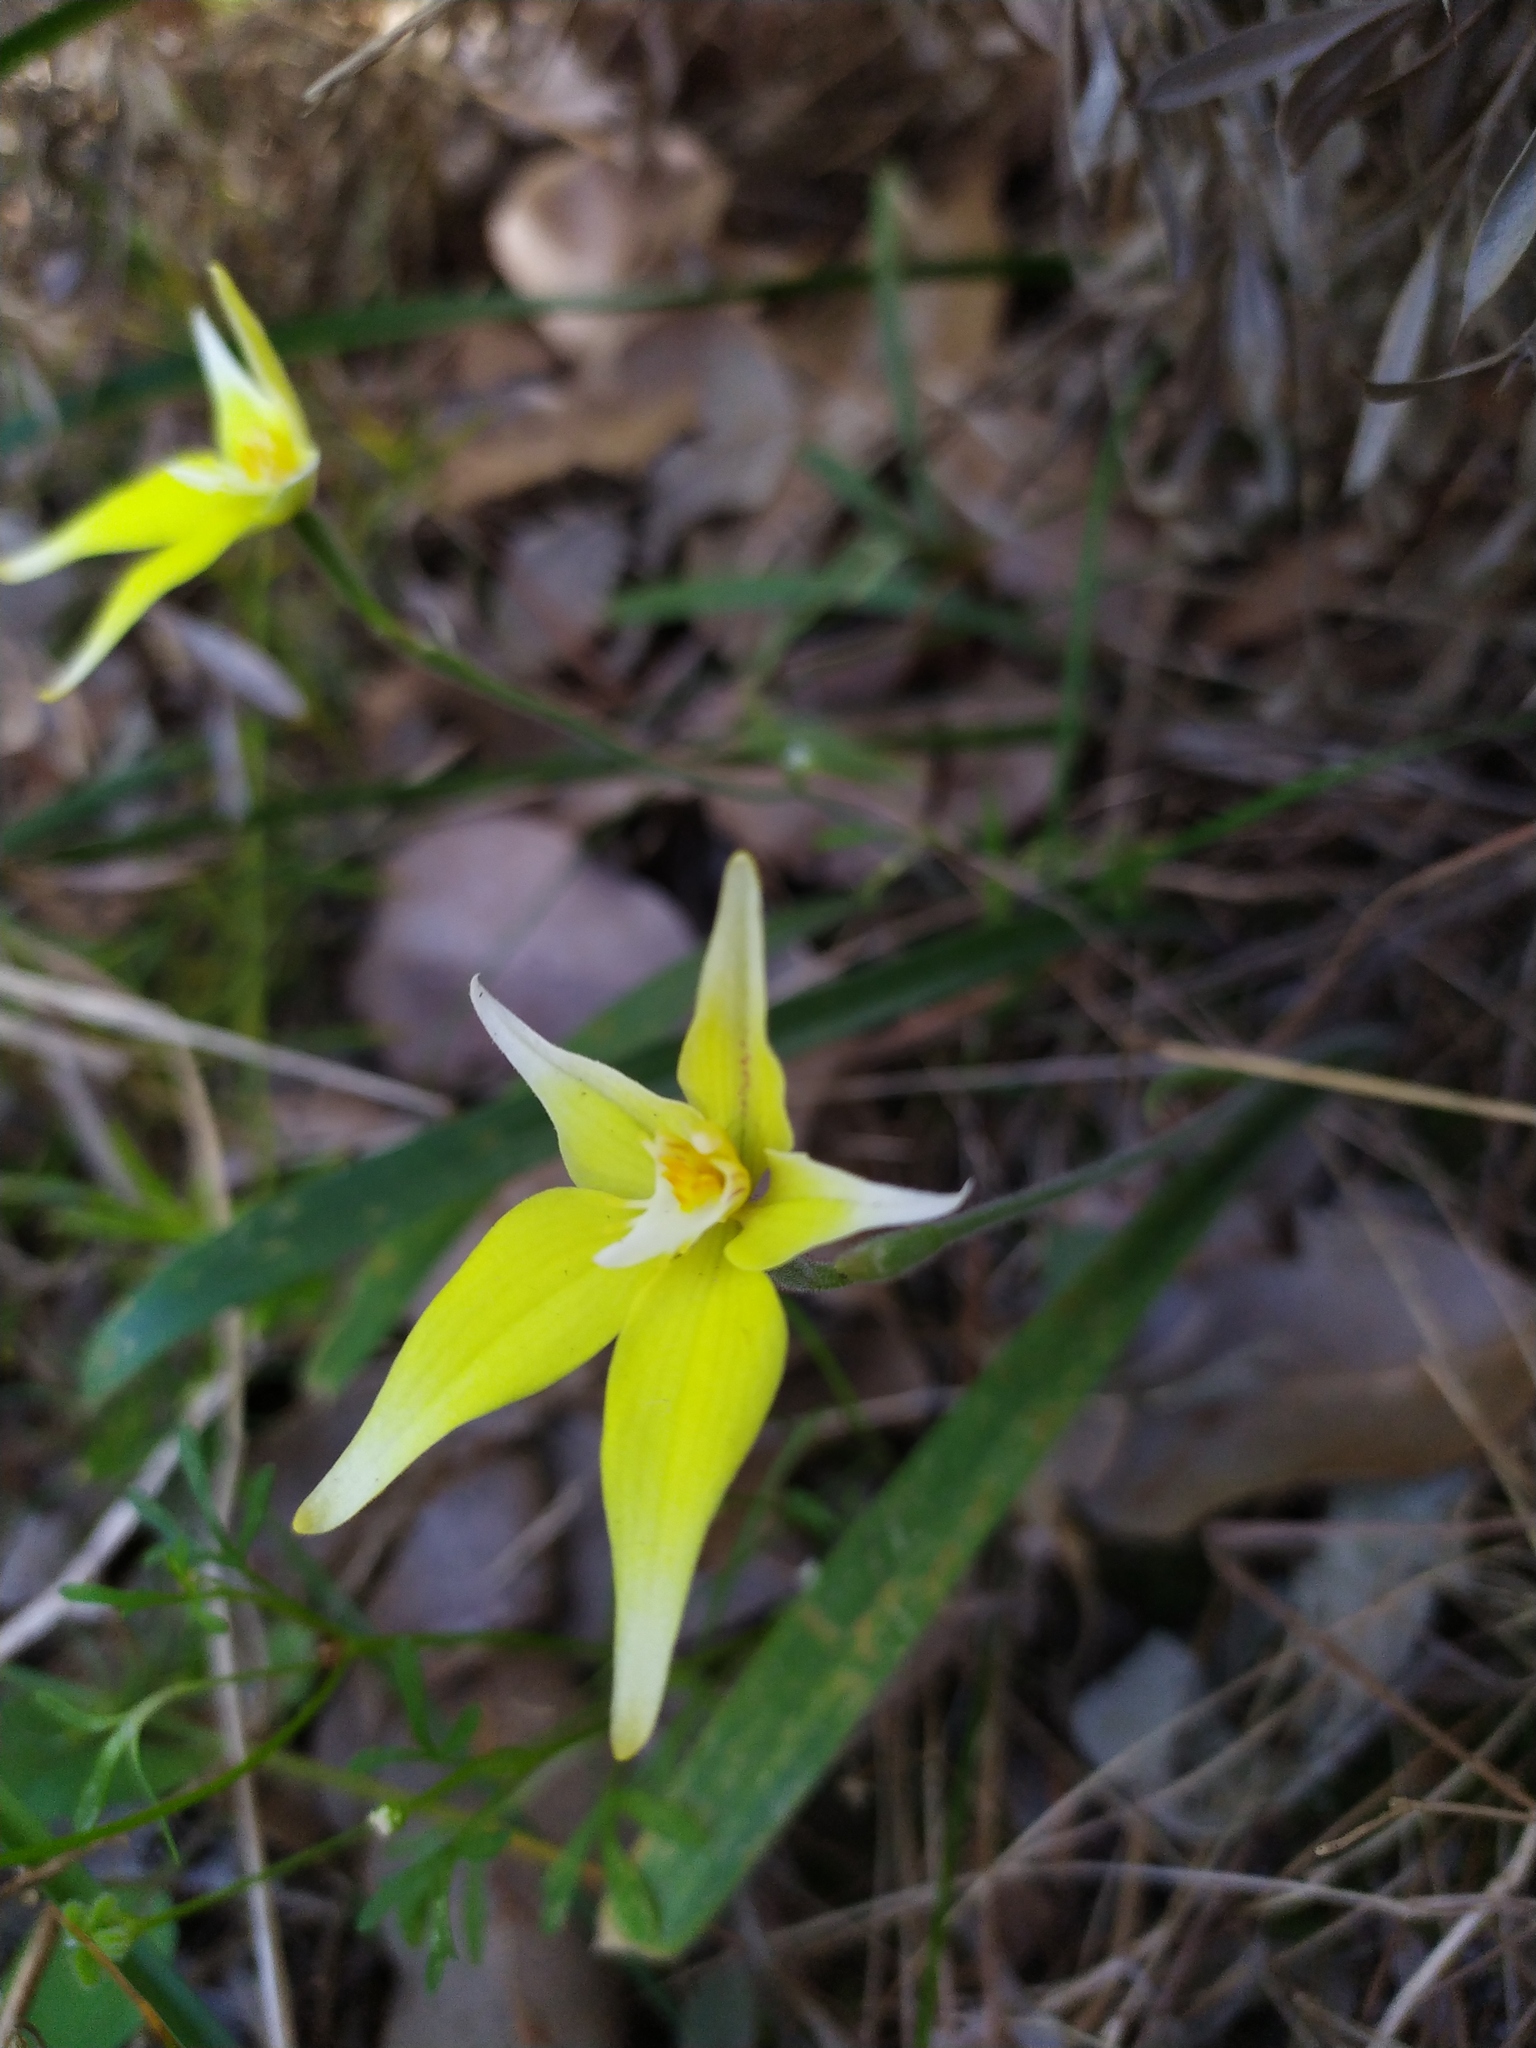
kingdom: Plantae
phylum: Tracheophyta
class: Liliopsida
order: Asparagales
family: Orchidaceae
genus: Caladenia
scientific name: Caladenia flava
